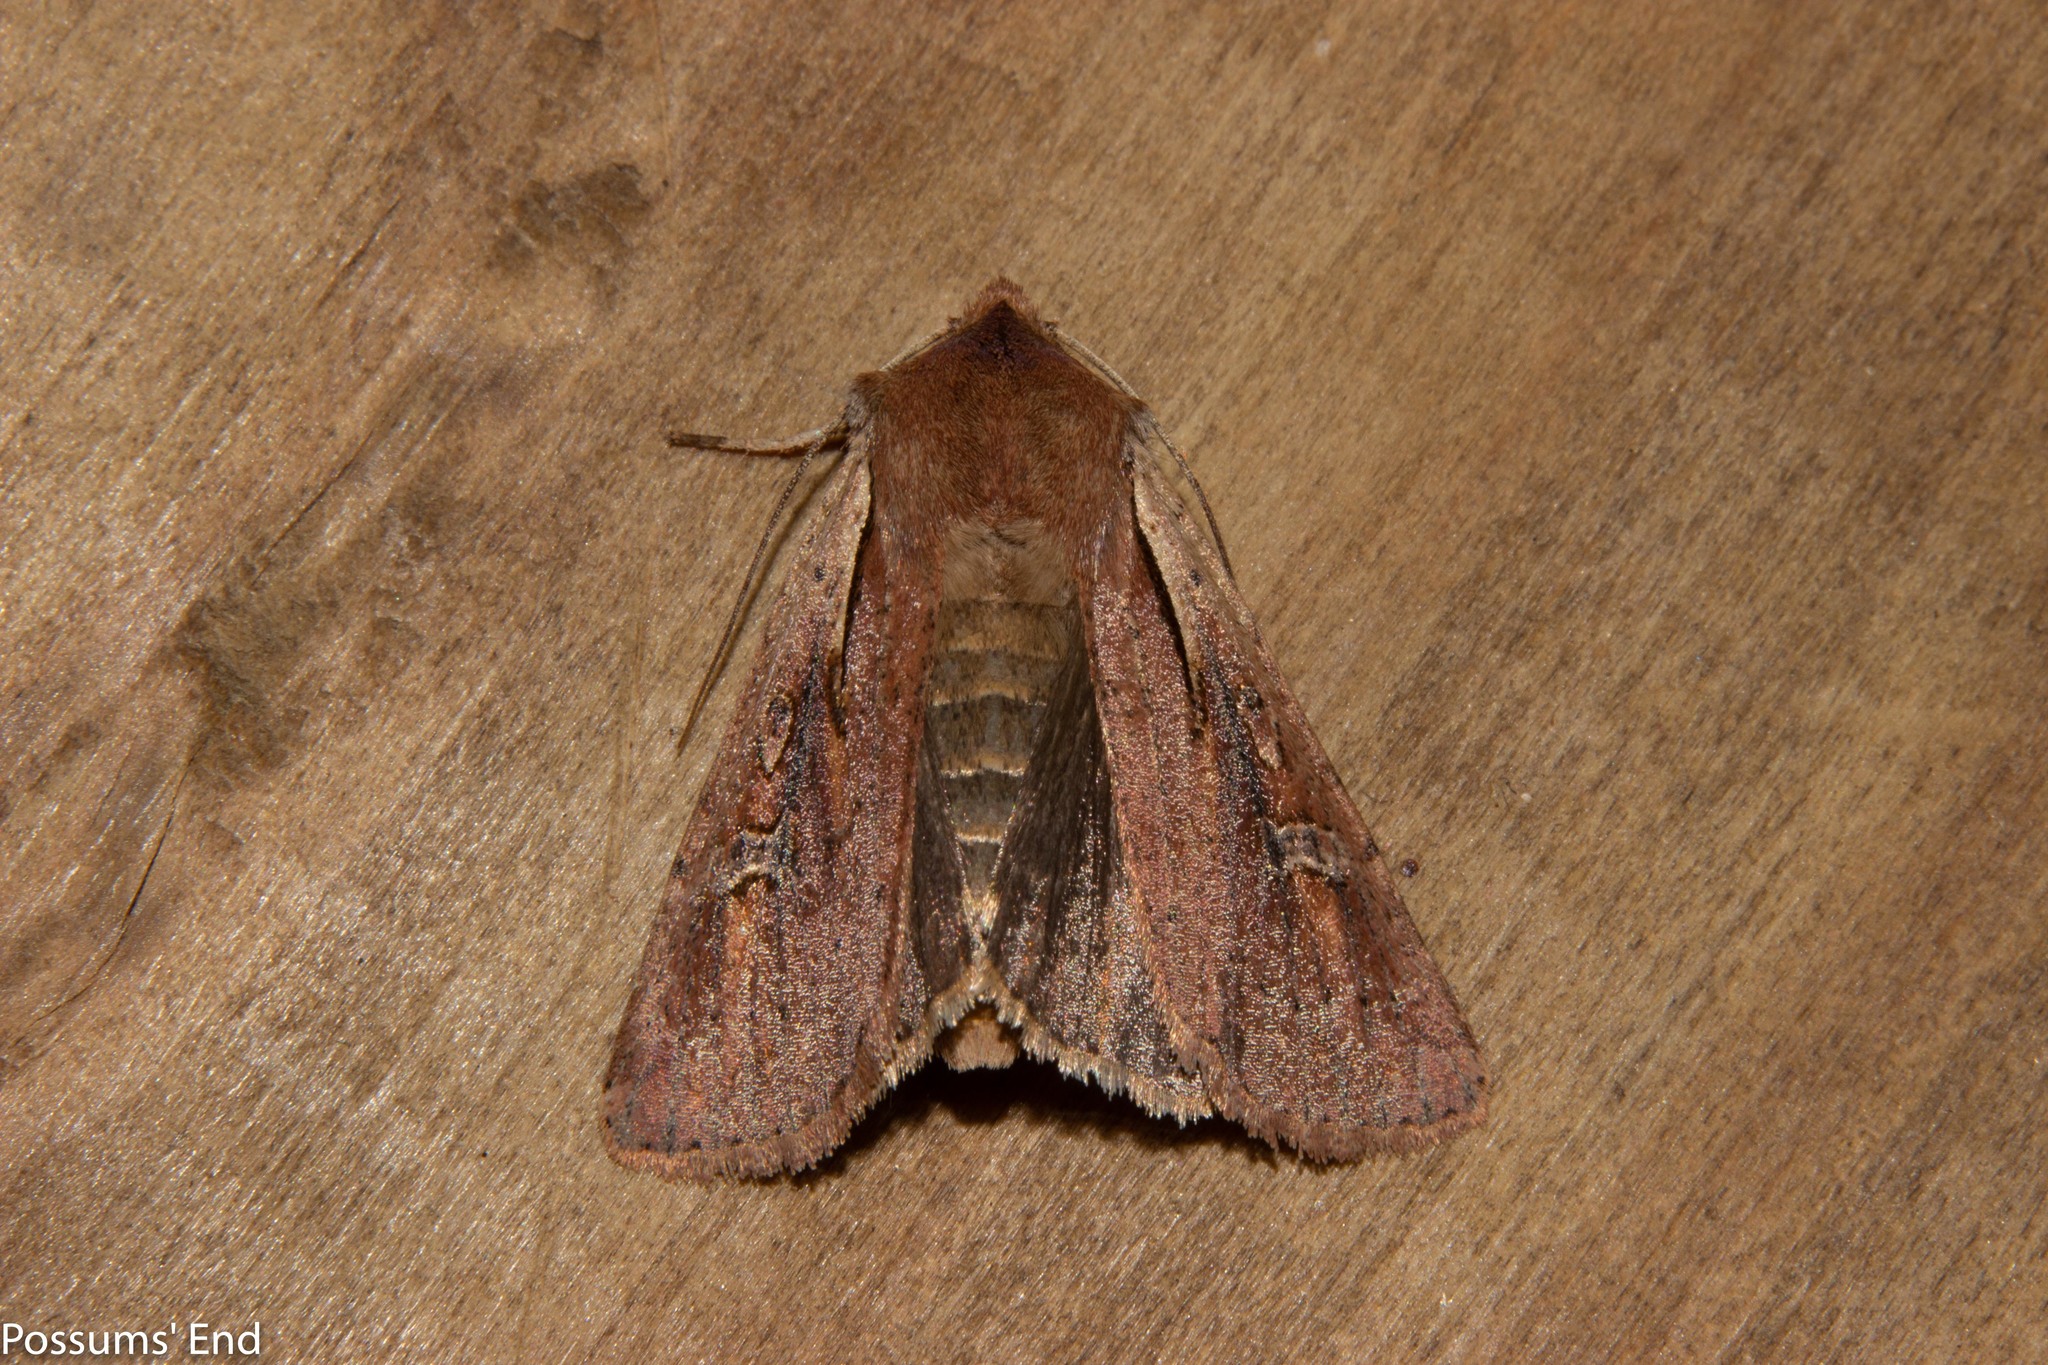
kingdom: Animalia
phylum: Arthropoda
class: Insecta
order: Lepidoptera
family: Noctuidae
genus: Ichneutica
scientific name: Ichneutica atristriga
